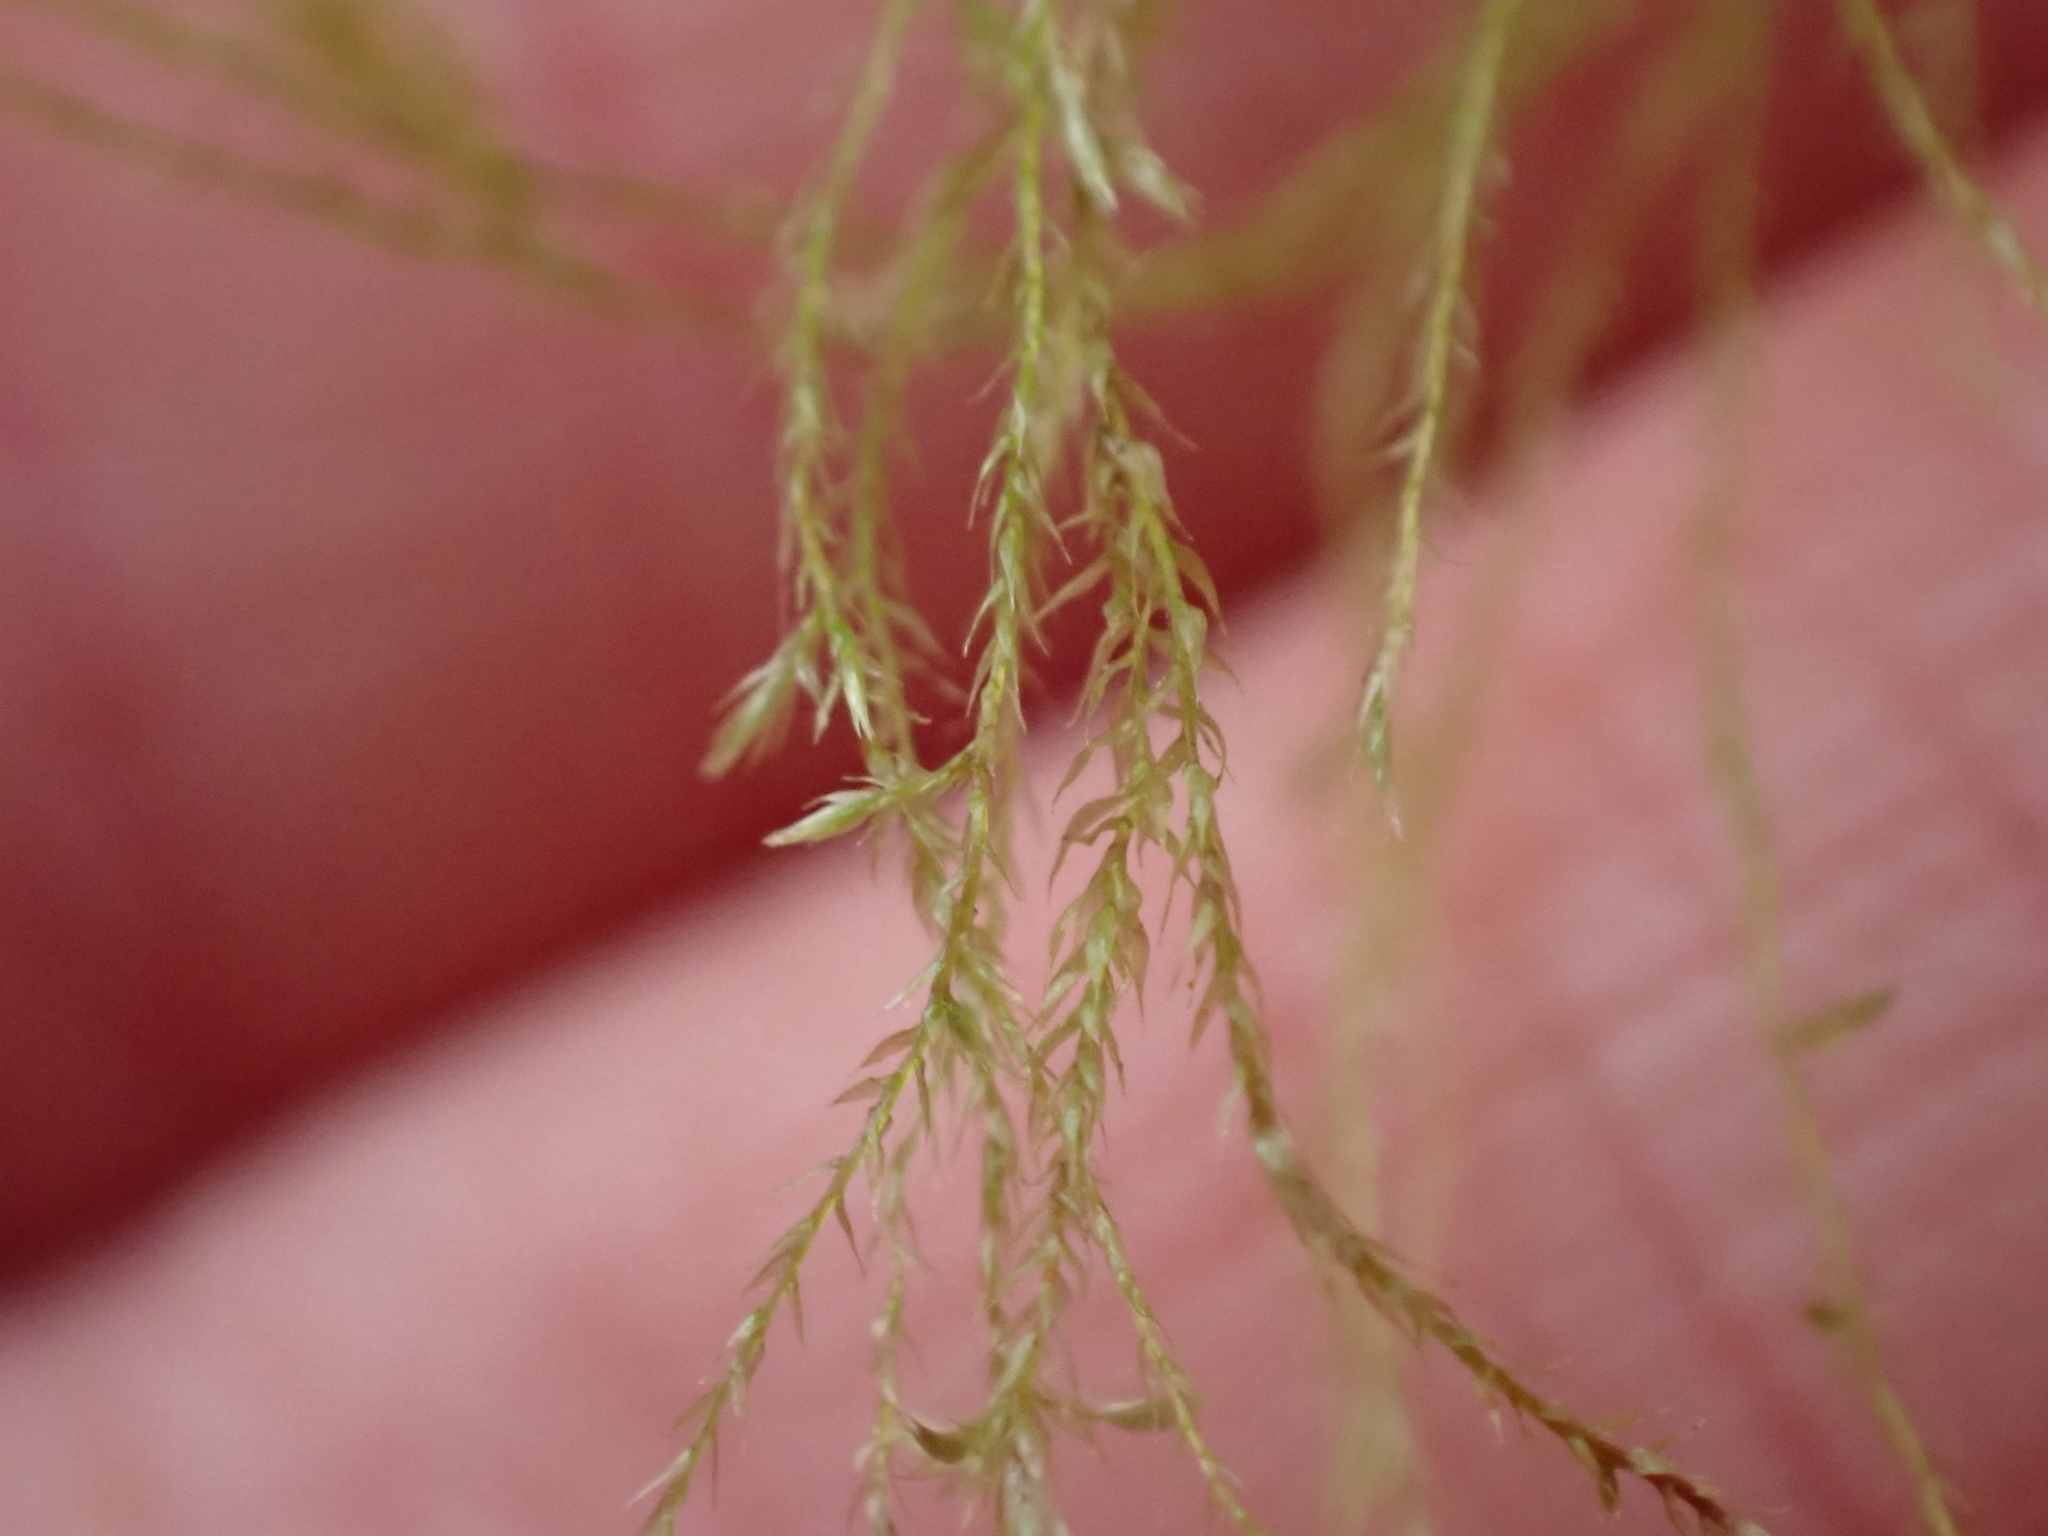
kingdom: Plantae
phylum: Bryophyta
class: Bryopsida
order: Hypnales
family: Lembophyllaceae
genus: Pseudisothecium
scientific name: Pseudisothecium stoloniferum
